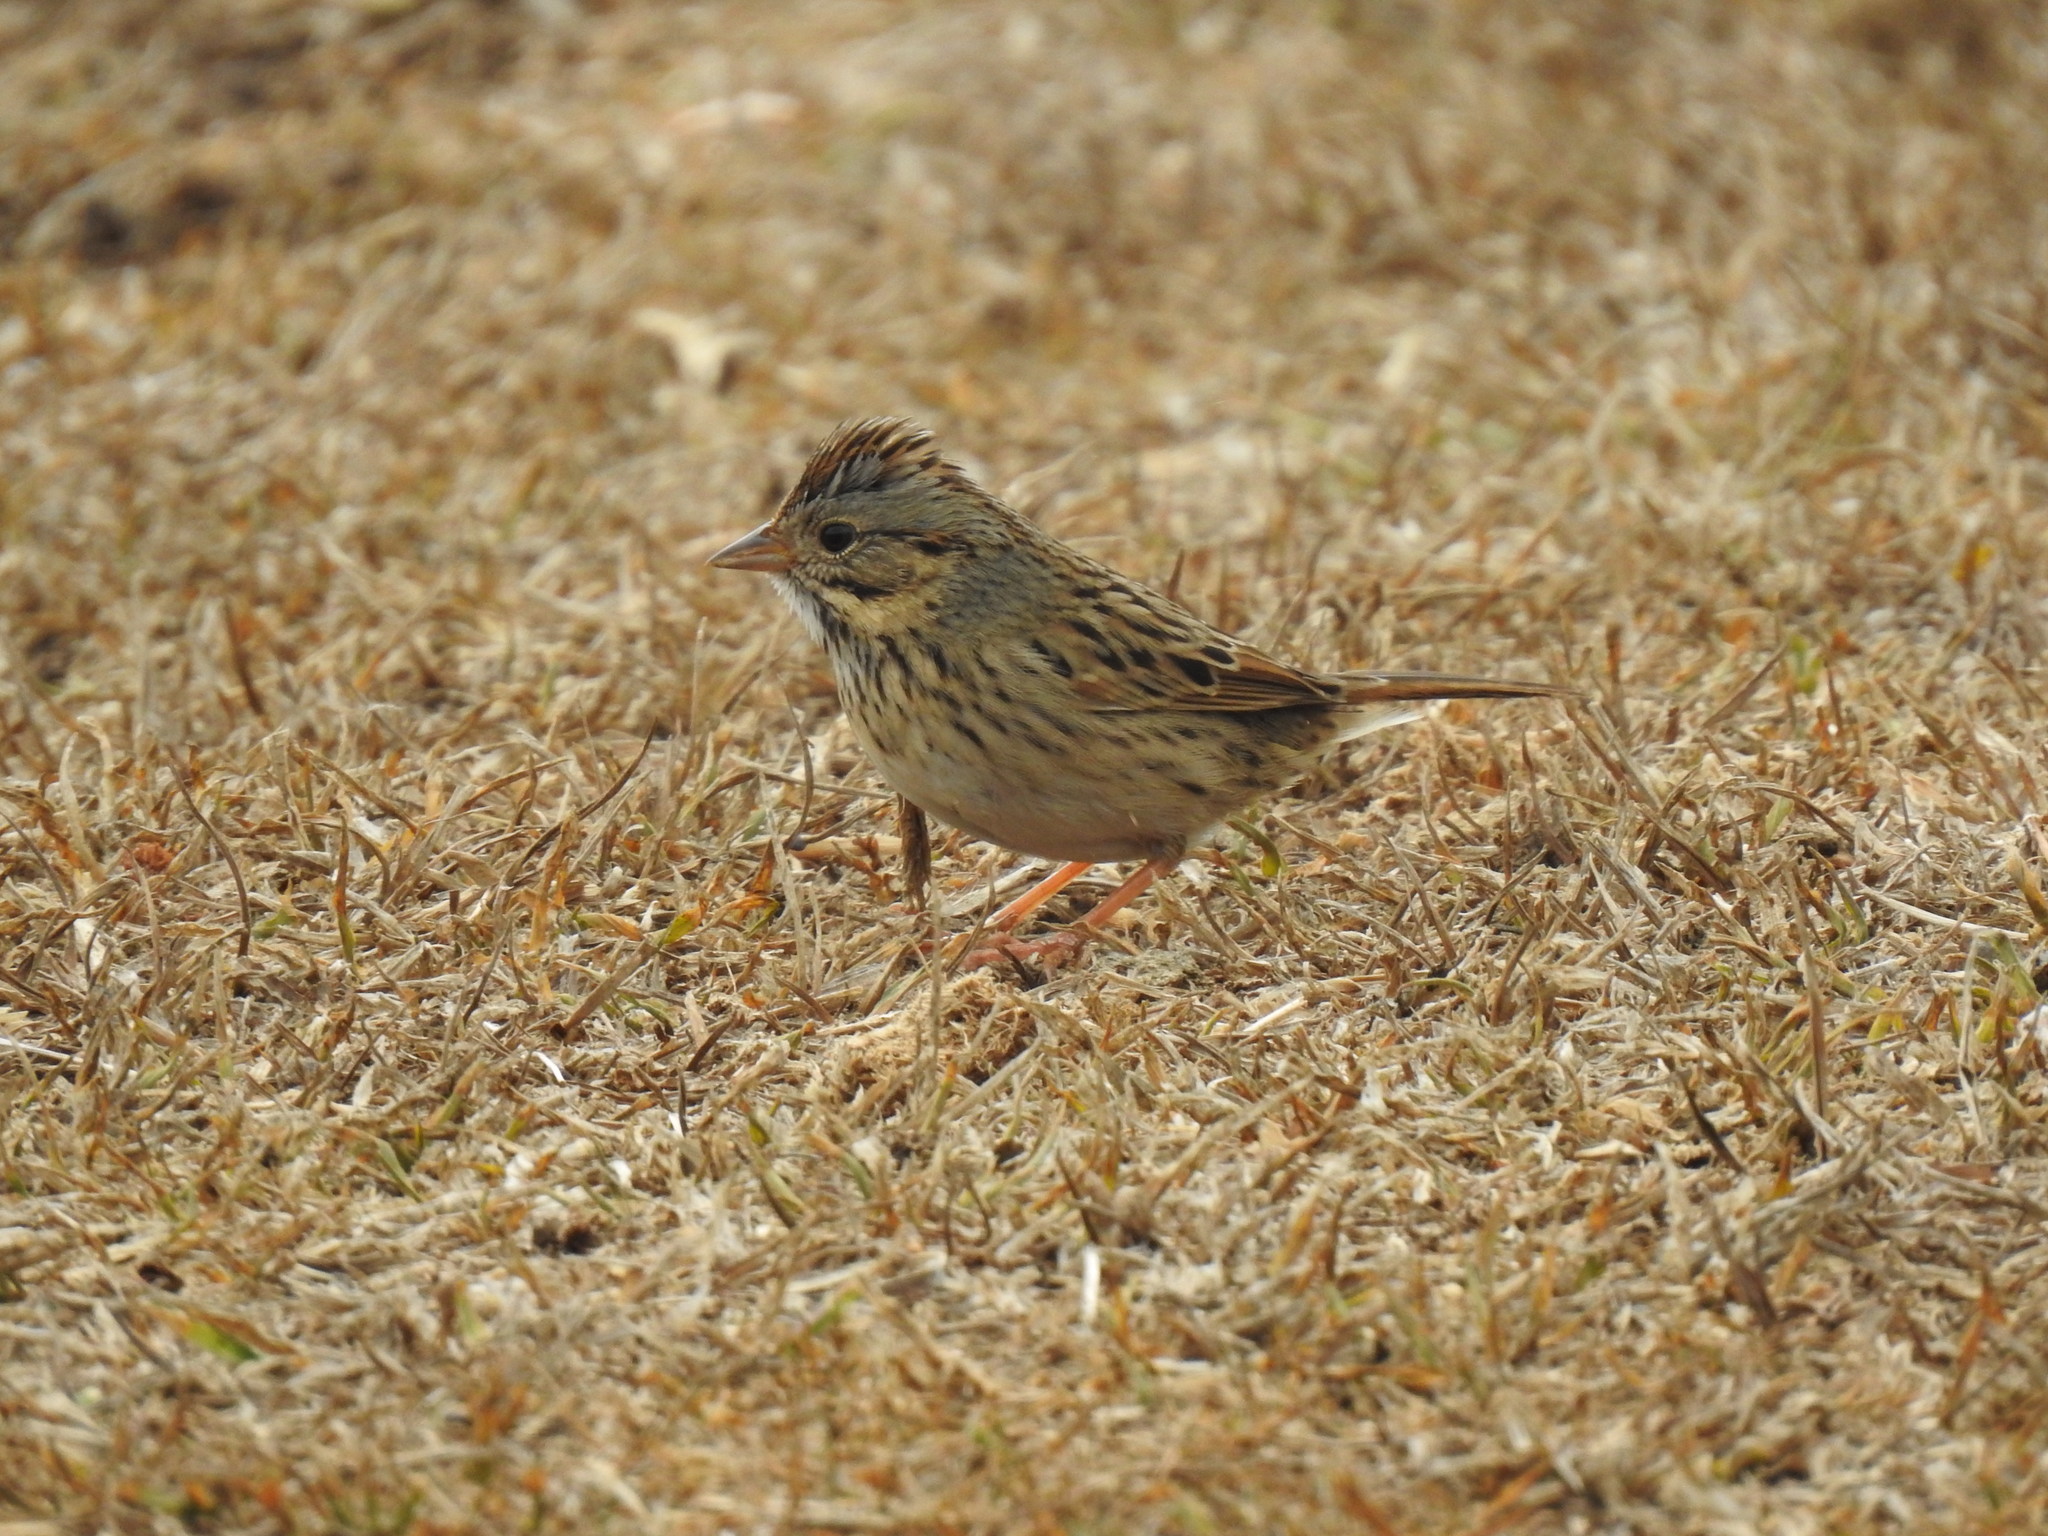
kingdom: Animalia
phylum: Chordata
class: Aves
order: Passeriformes
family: Passerellidae
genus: Melospiza
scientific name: Melospiza lincolnii
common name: Lincoln's sparrow
